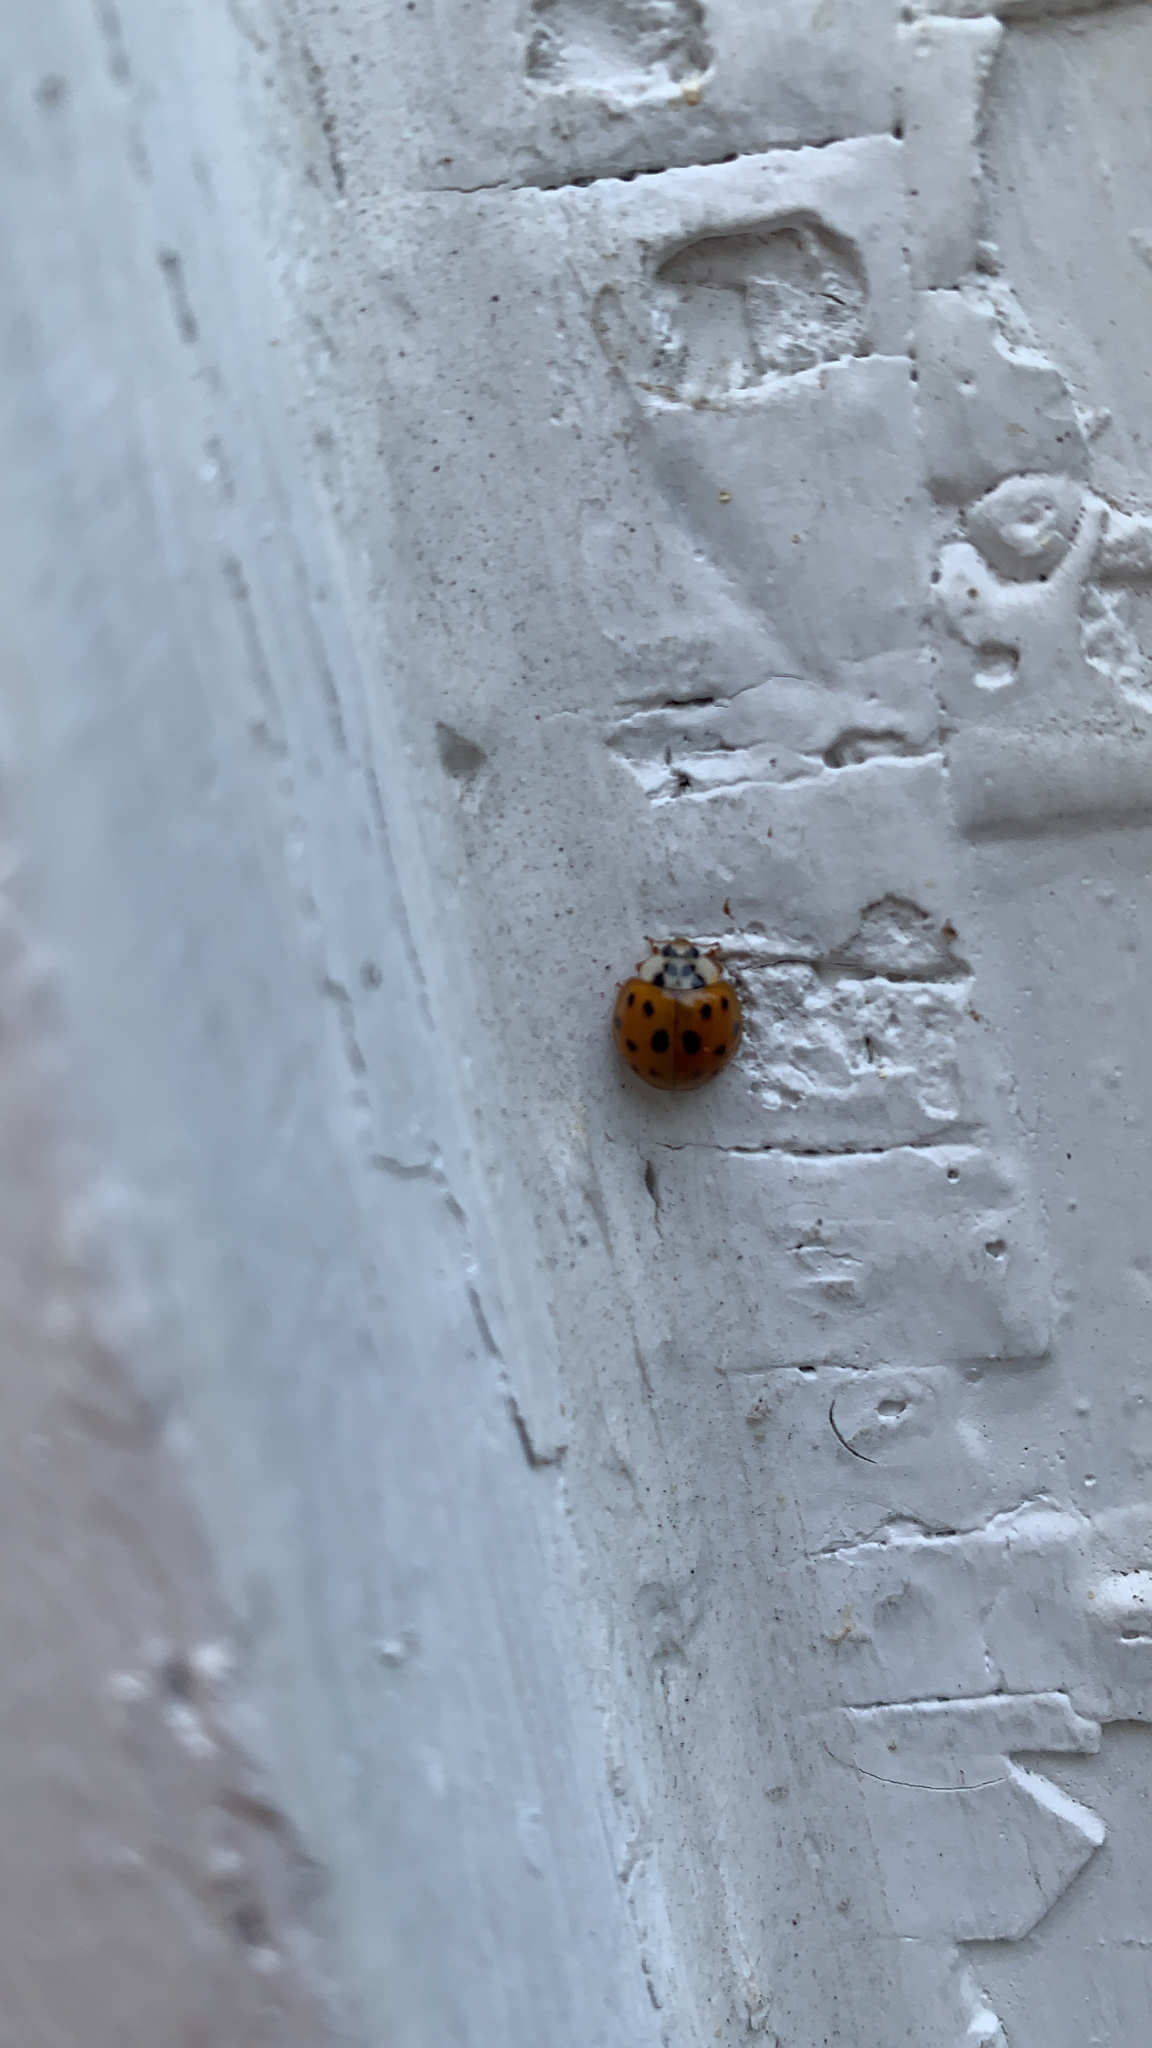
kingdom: Animalia
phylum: Arthropoda
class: Insecta
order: Coleoptera
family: Coccinellidae
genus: Harmonia
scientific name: Harmonia axyridis
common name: Harlequin ladybird
